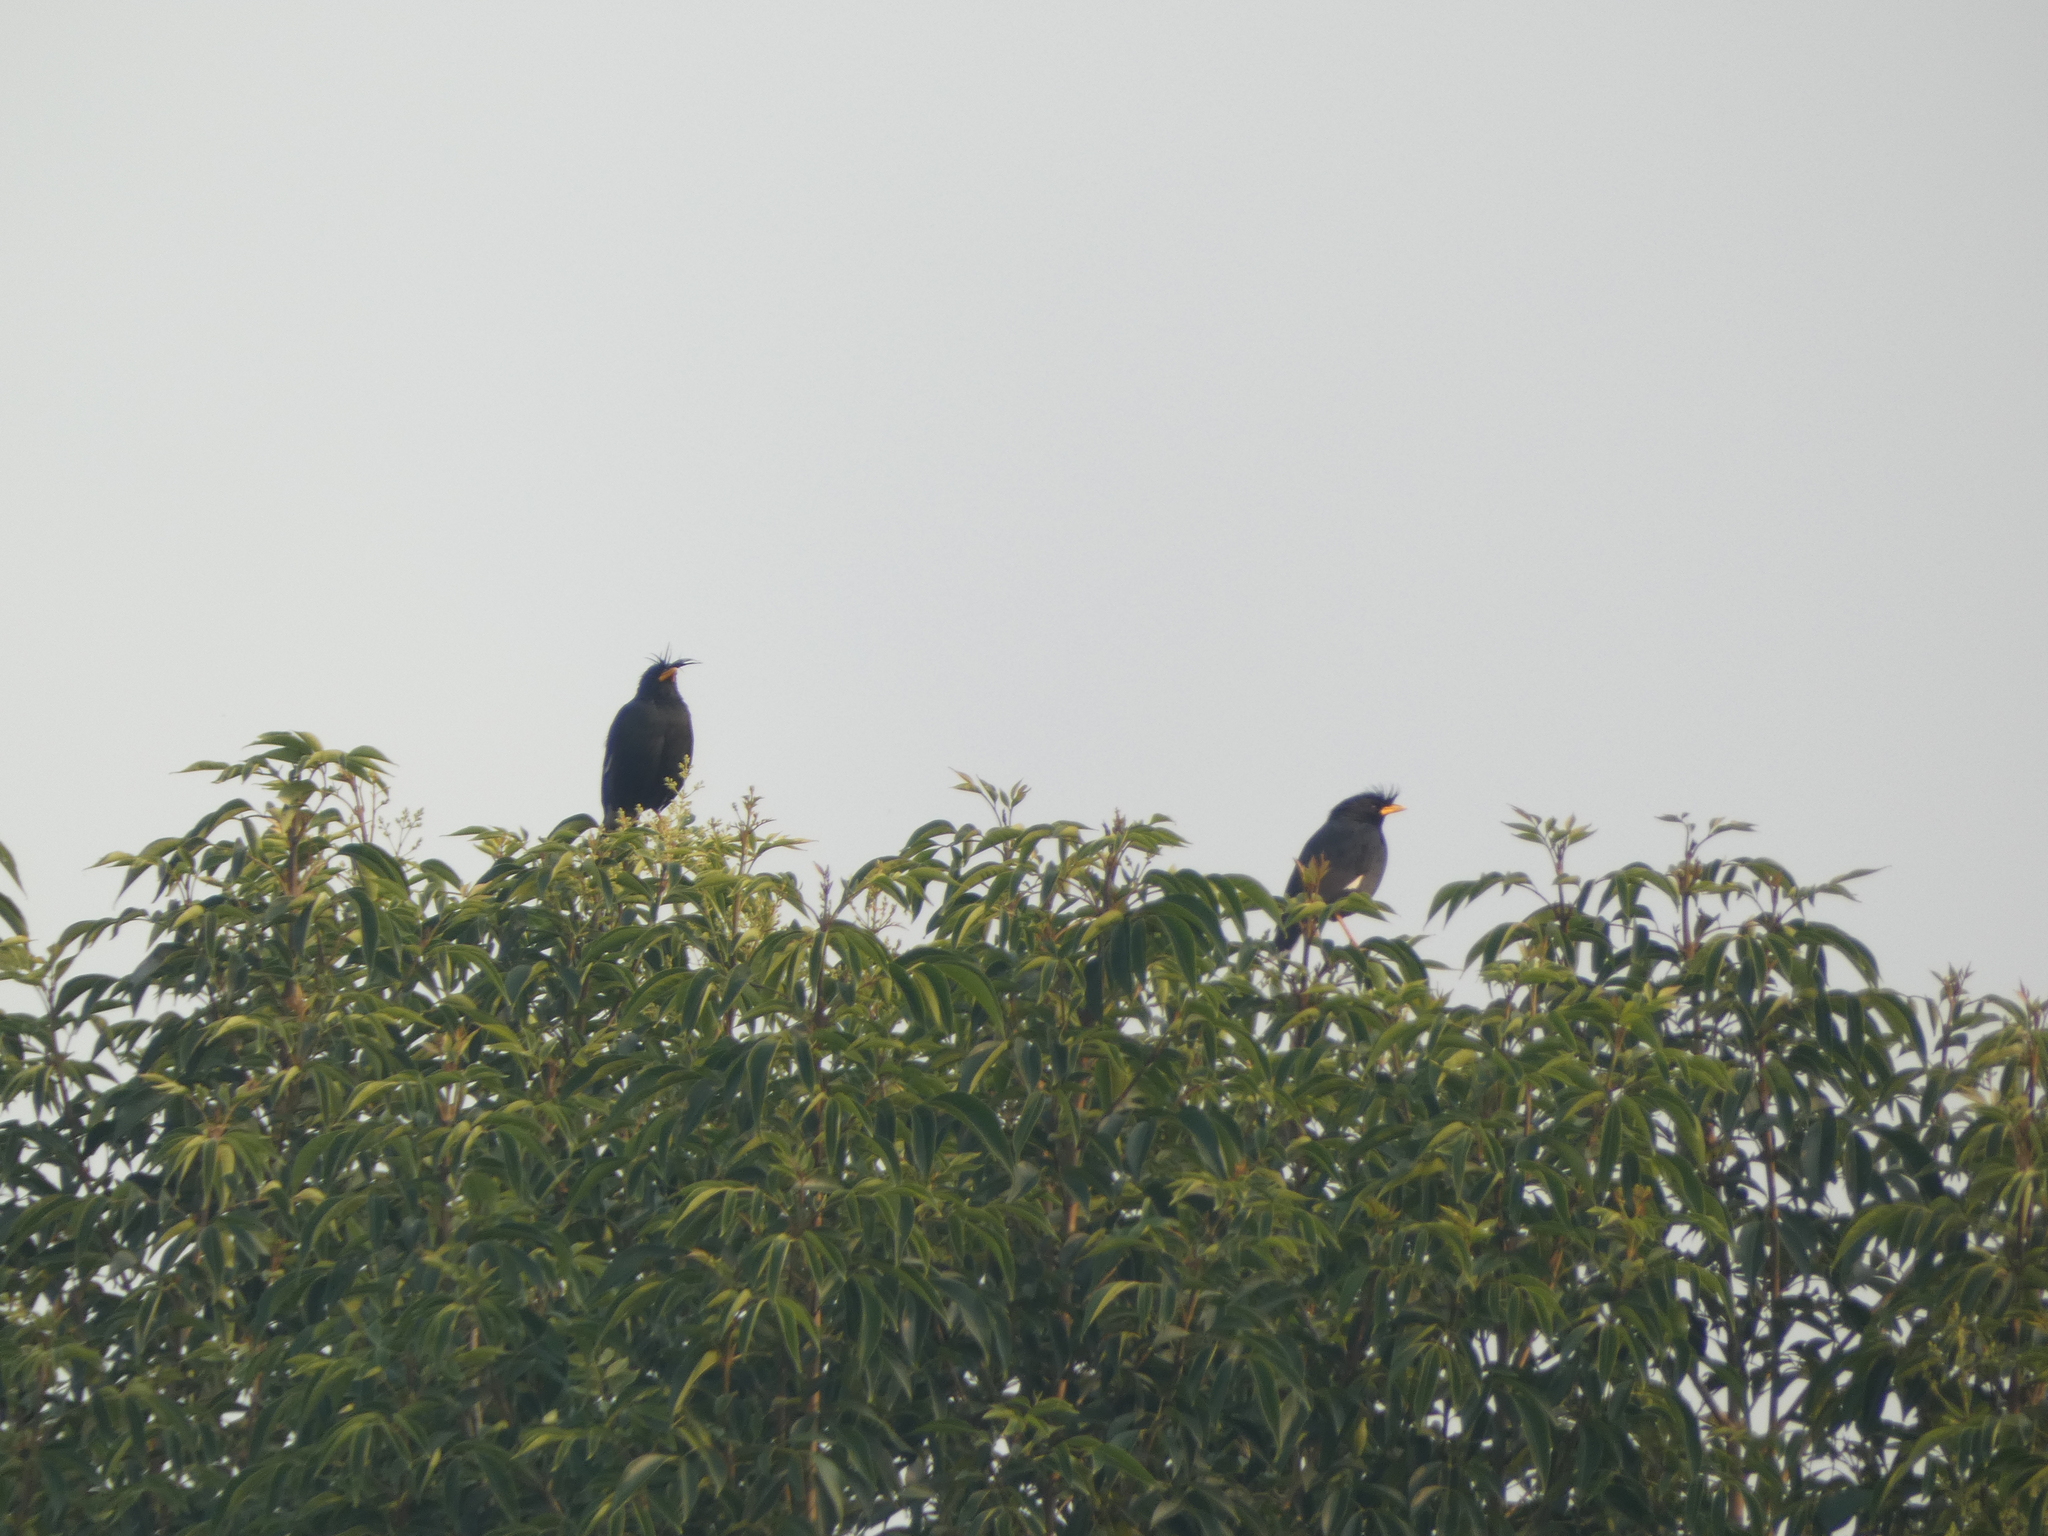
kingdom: Animalia
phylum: Chordata
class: Aves
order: Passeriformes
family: Sturnidae
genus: Acridotheres
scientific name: Acridotheres grandis
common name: Great myna
